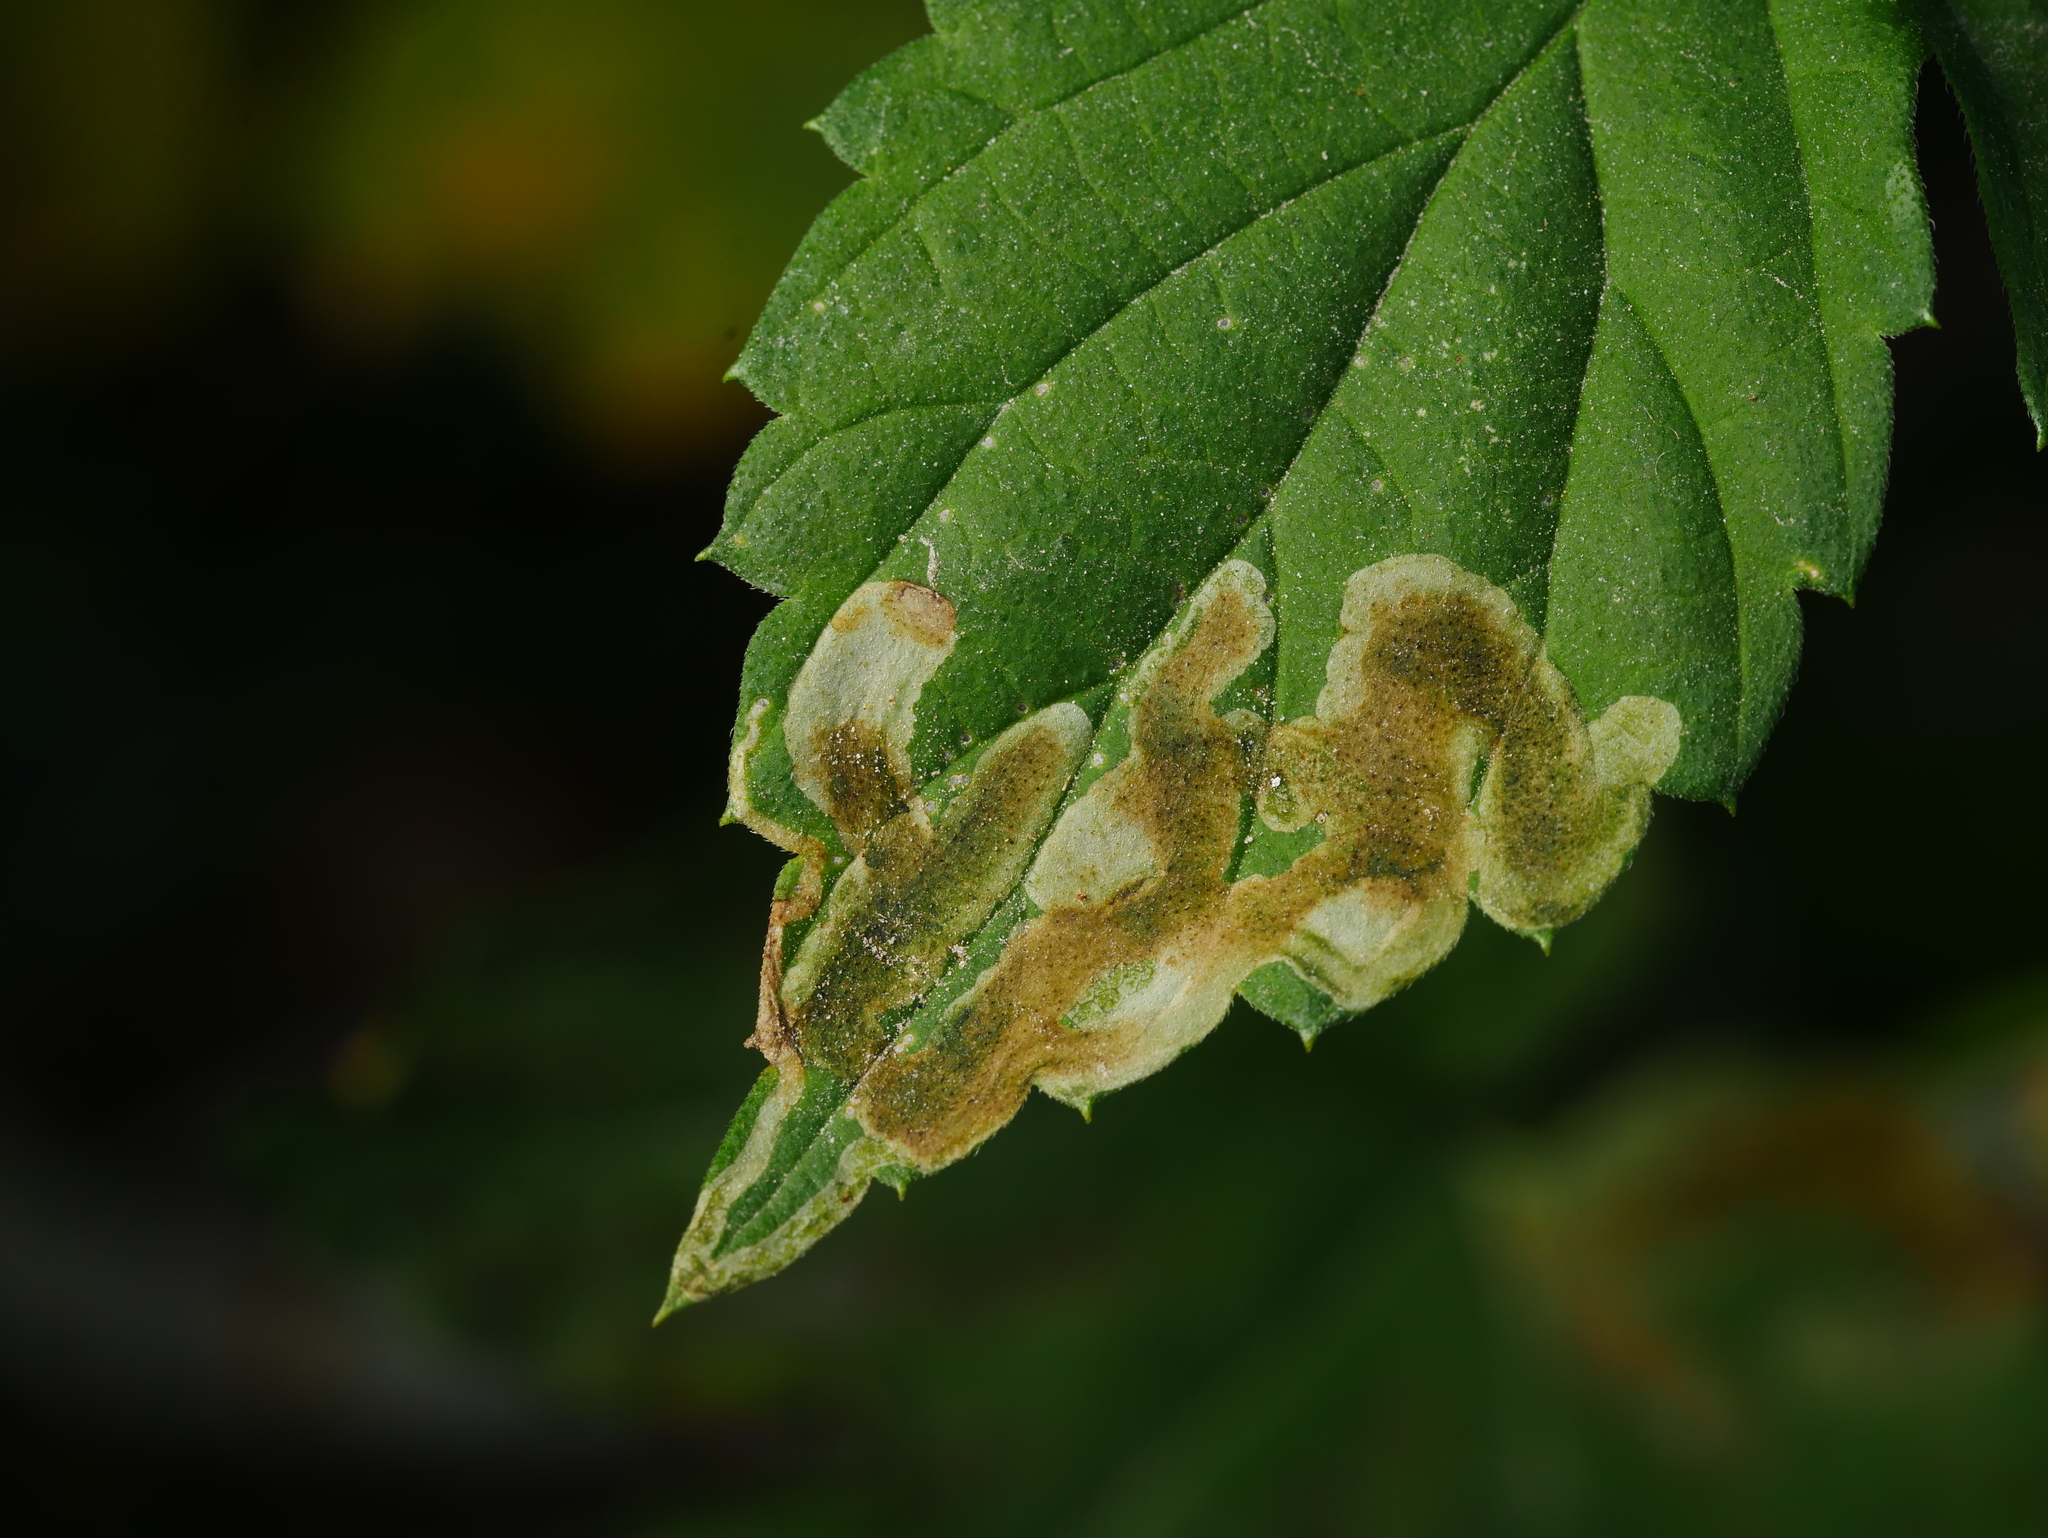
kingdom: Animalia
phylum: Arthropoda
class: Insecta
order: Diptera
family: Agromyzidae
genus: Agromyza
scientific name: Agromyza flaviceps
